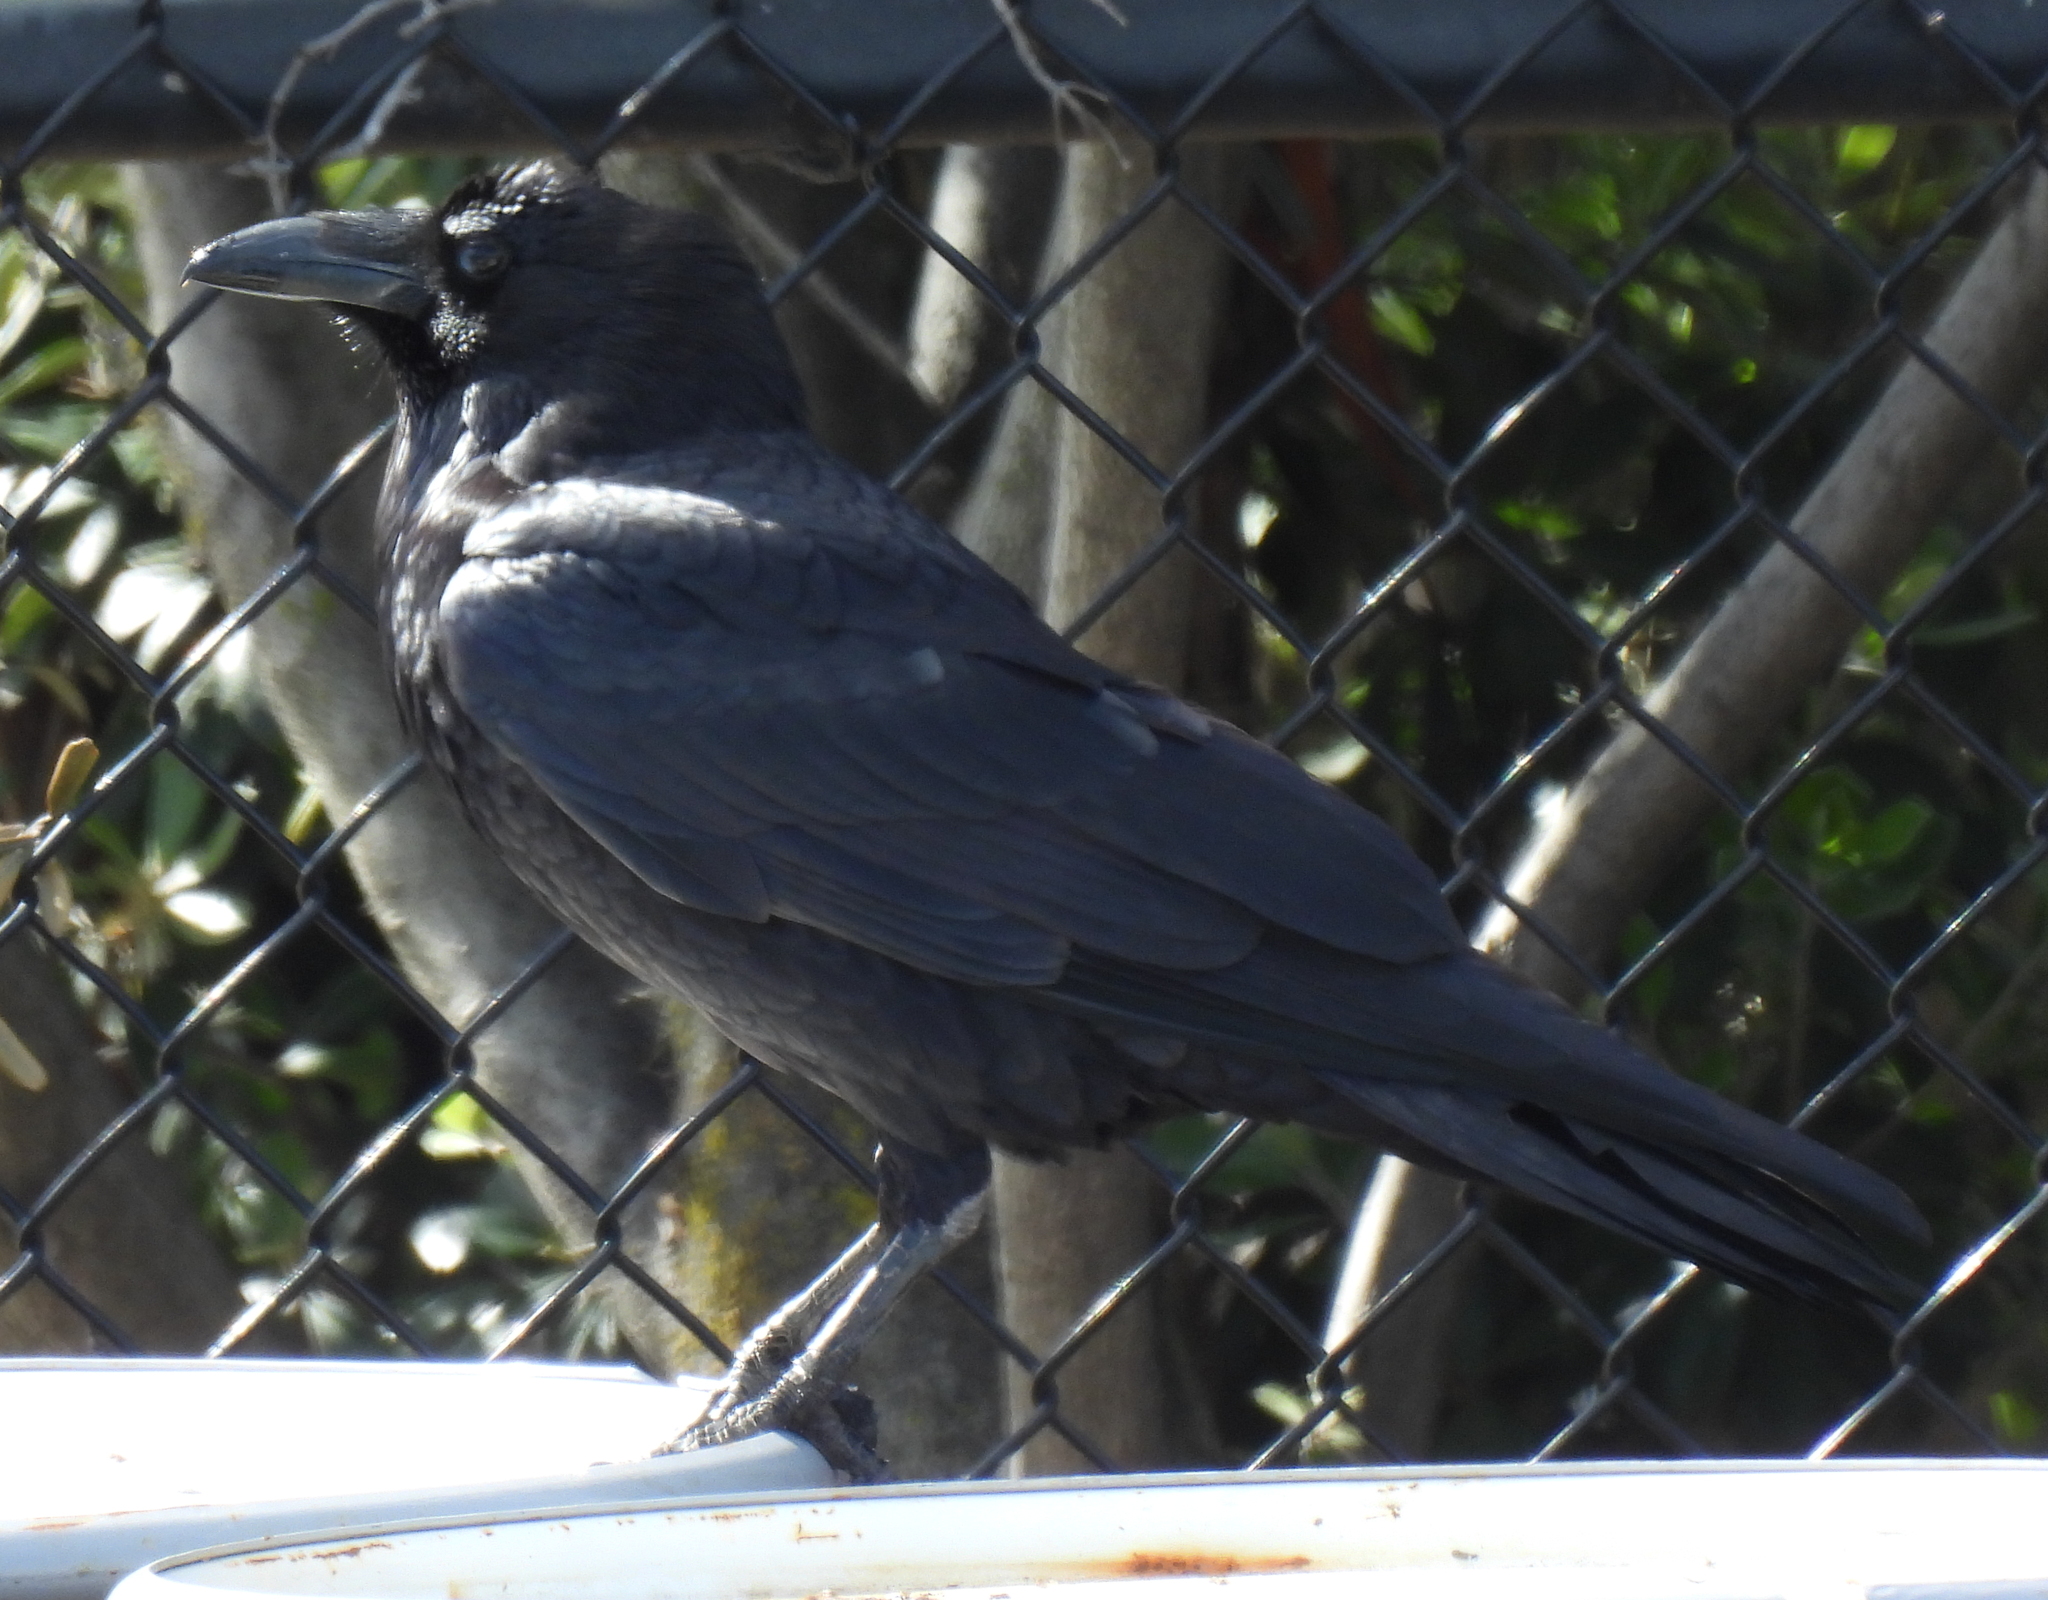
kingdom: Animalia
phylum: Chordata
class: Aves
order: Passeriformes
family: Corvidae
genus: Corvus
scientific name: Corvus corax
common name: Common raven
